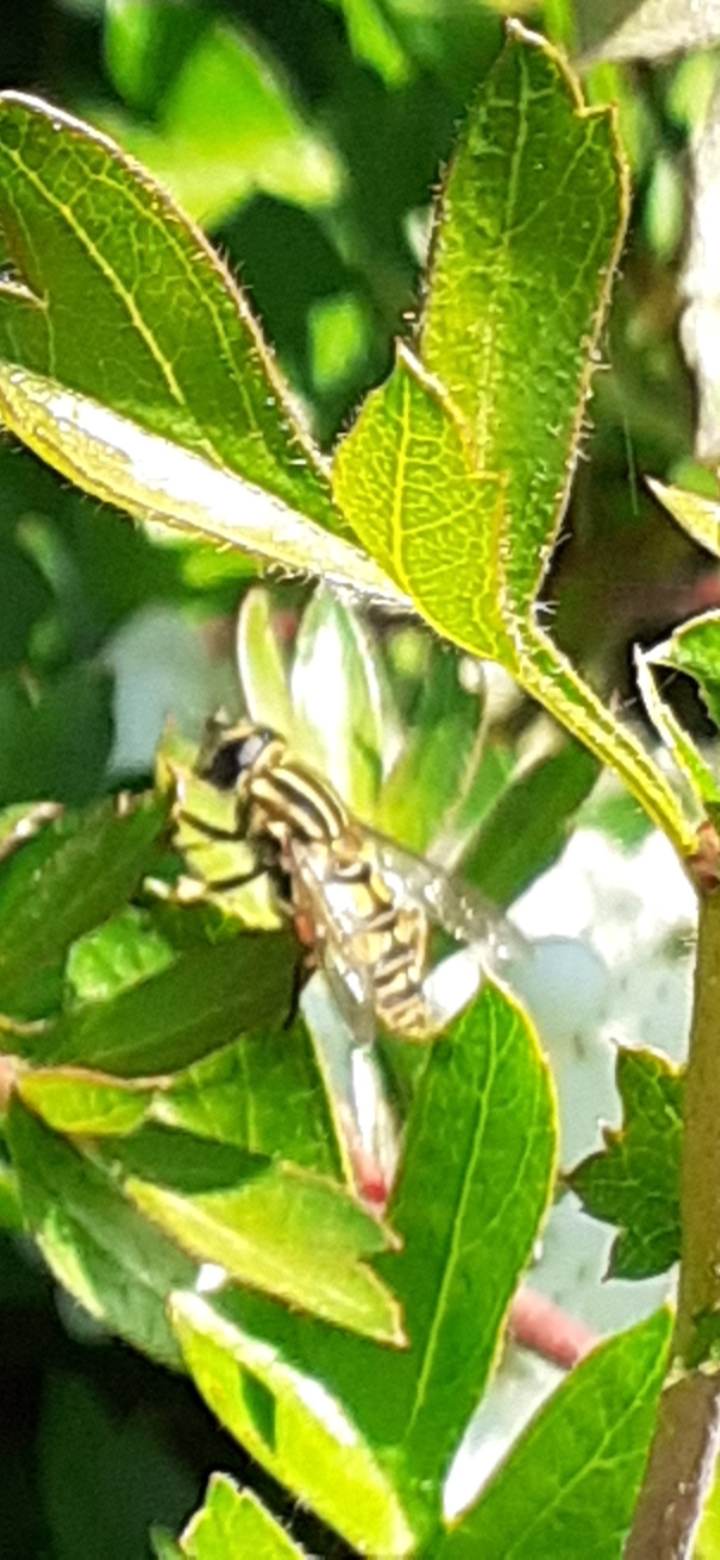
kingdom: Animalia
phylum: Arthropoda
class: Insecta
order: Diptera
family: Syrphidae
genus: Helophilus
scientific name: Helophilus pendulus
